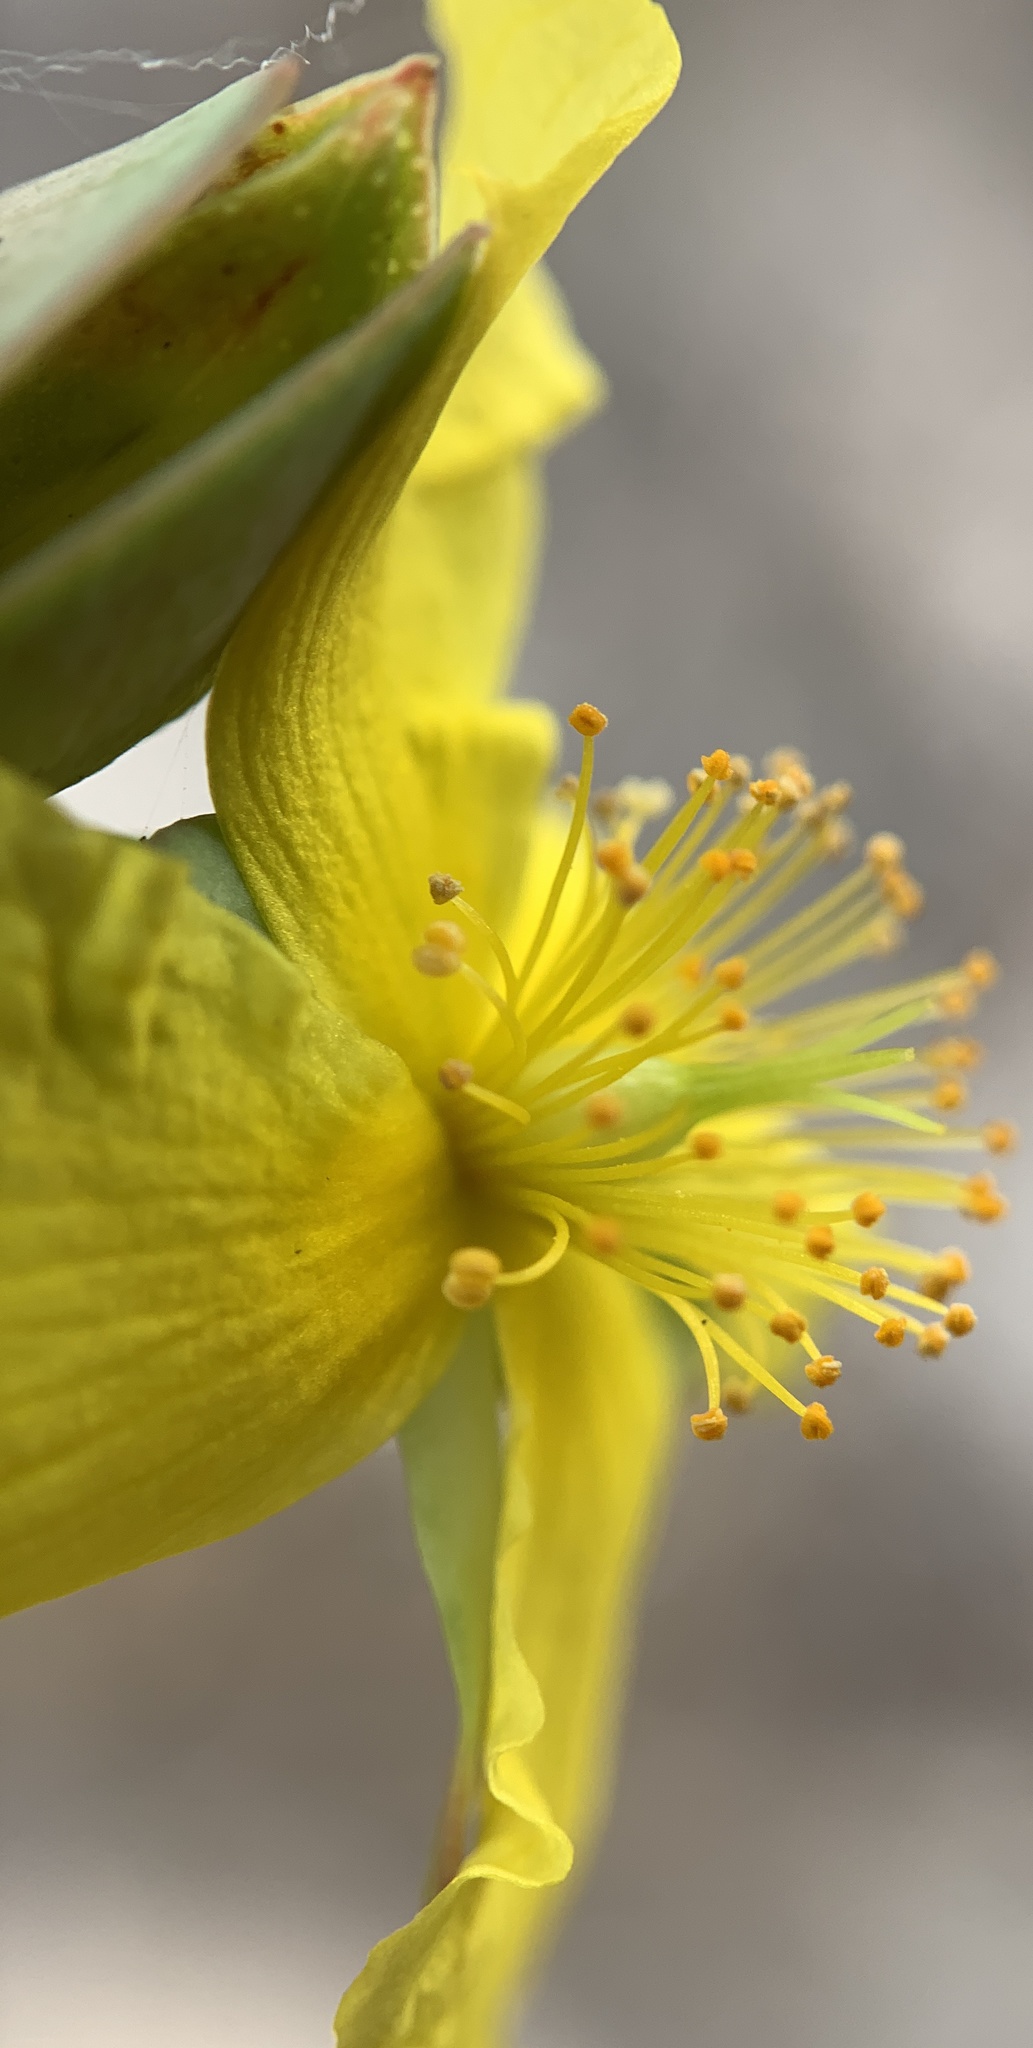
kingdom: Plantae
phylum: Tracheophyta
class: Magnoliopsida
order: Malpighiales
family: Hypericaceae
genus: Hypericum
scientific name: Hypericum tetrapetalum
